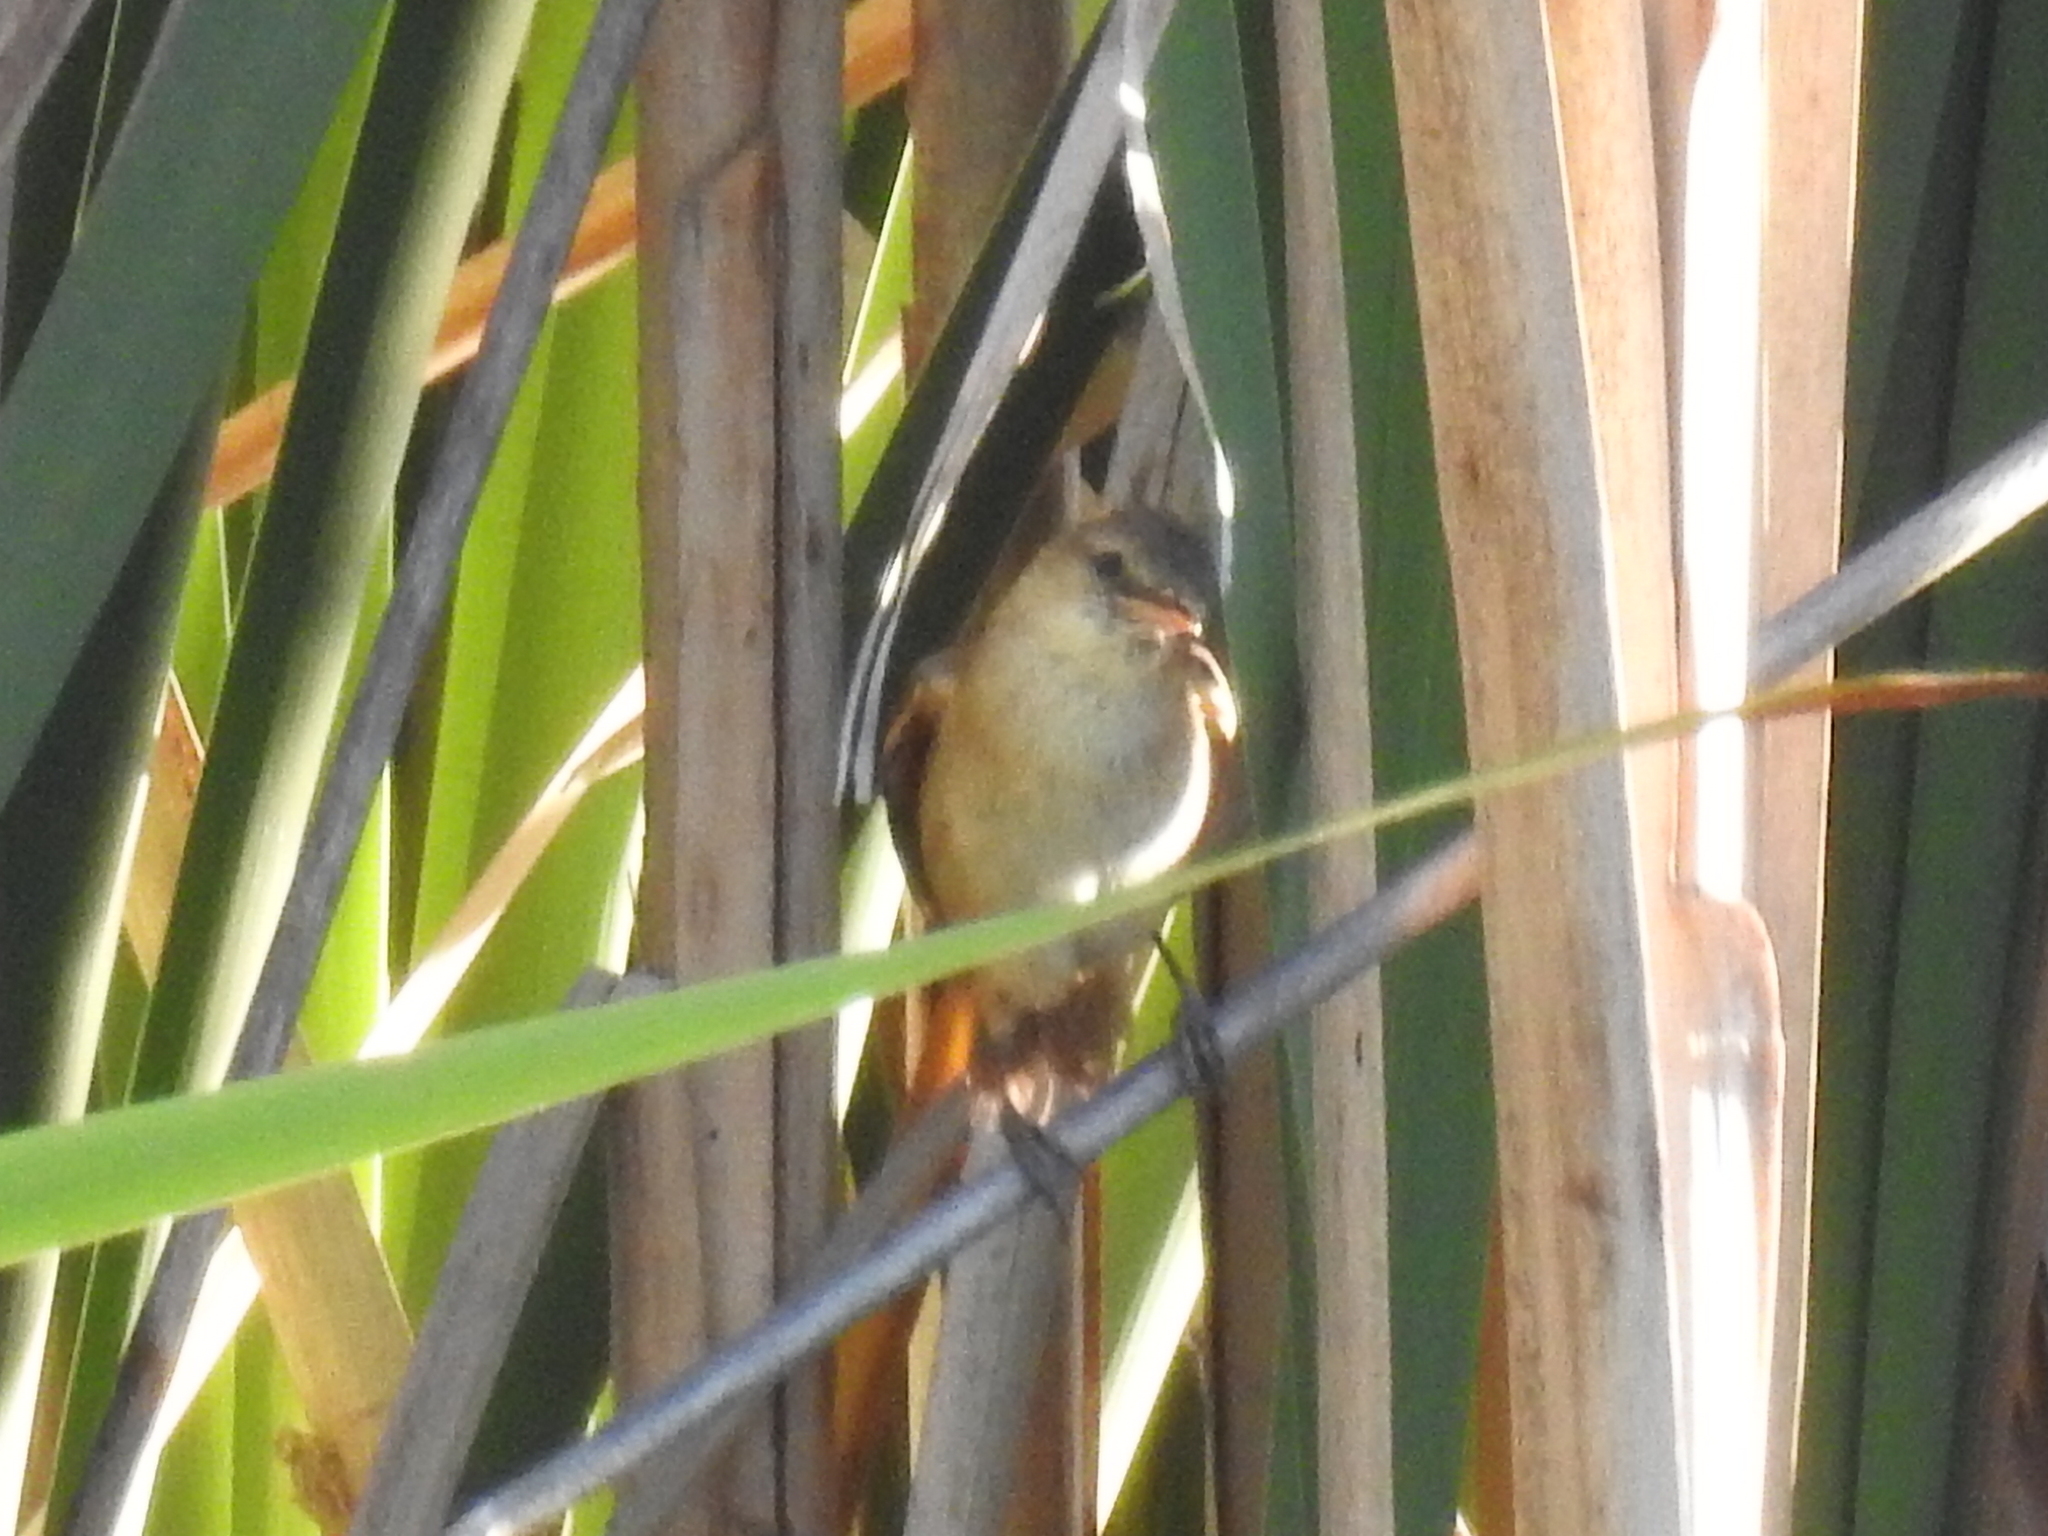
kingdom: Animalia
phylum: Chordata
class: Aves
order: Passeriformes
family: Acrocephalidae
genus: Acrocephalus
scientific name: Acrocephalus australis
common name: Australian reed warbler
